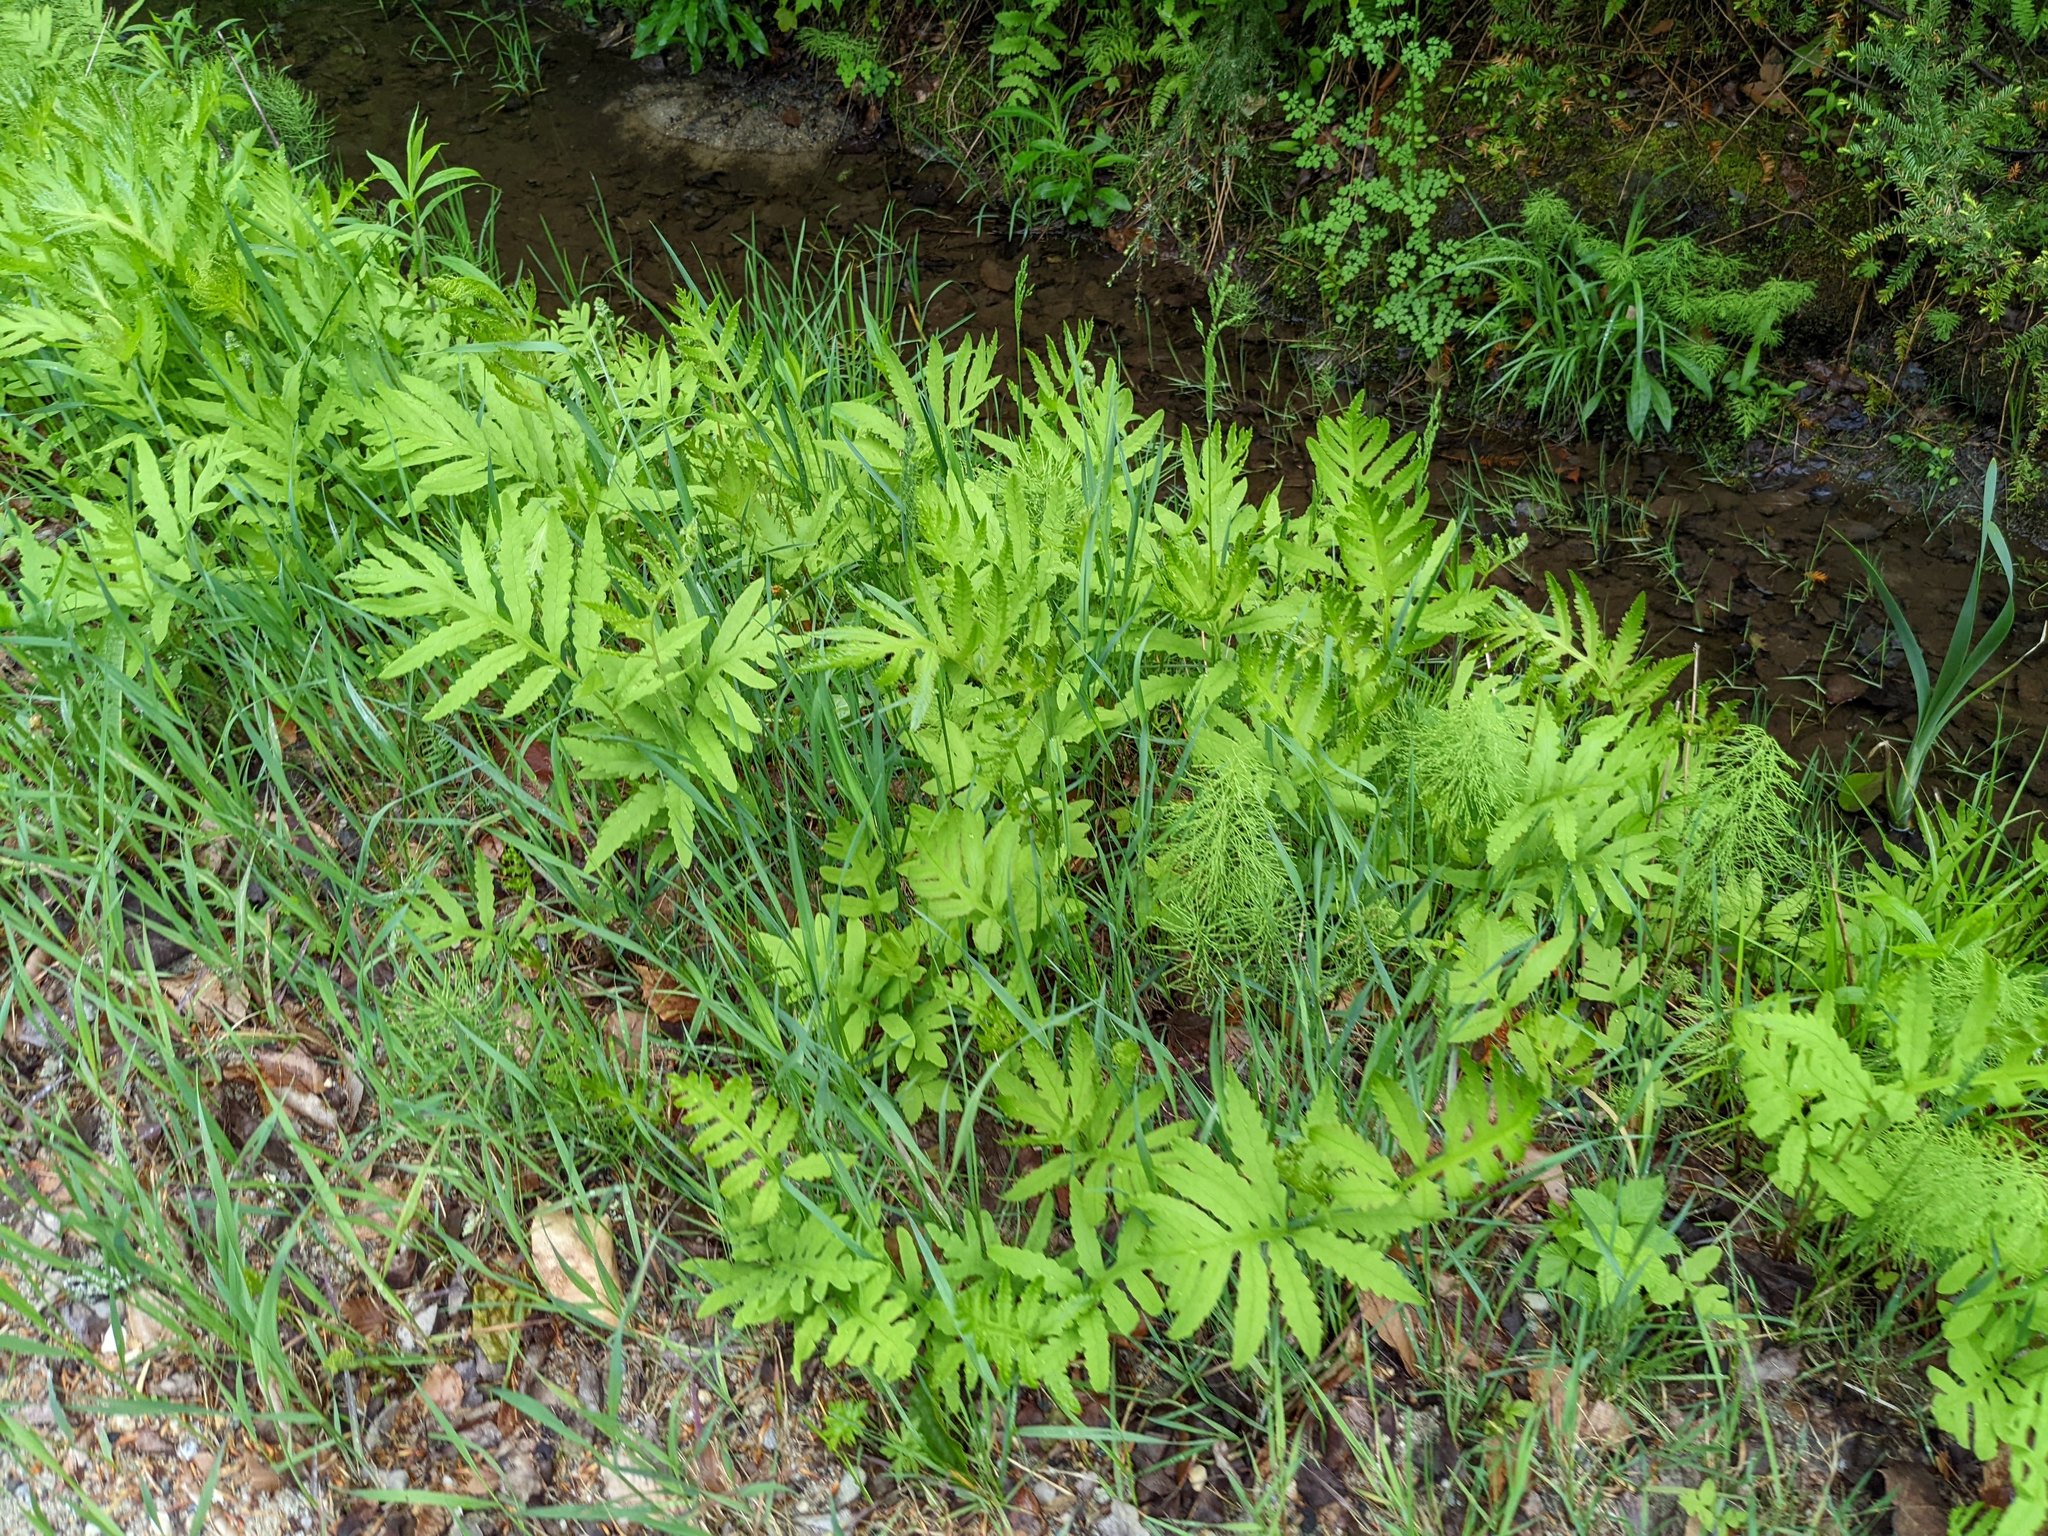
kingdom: Plantae
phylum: Tracheophyta
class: Polypodiopsida
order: Polypodiales
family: Onocleaceae
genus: Onoclea
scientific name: Onoclea sensibilis
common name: Sensitive fern
